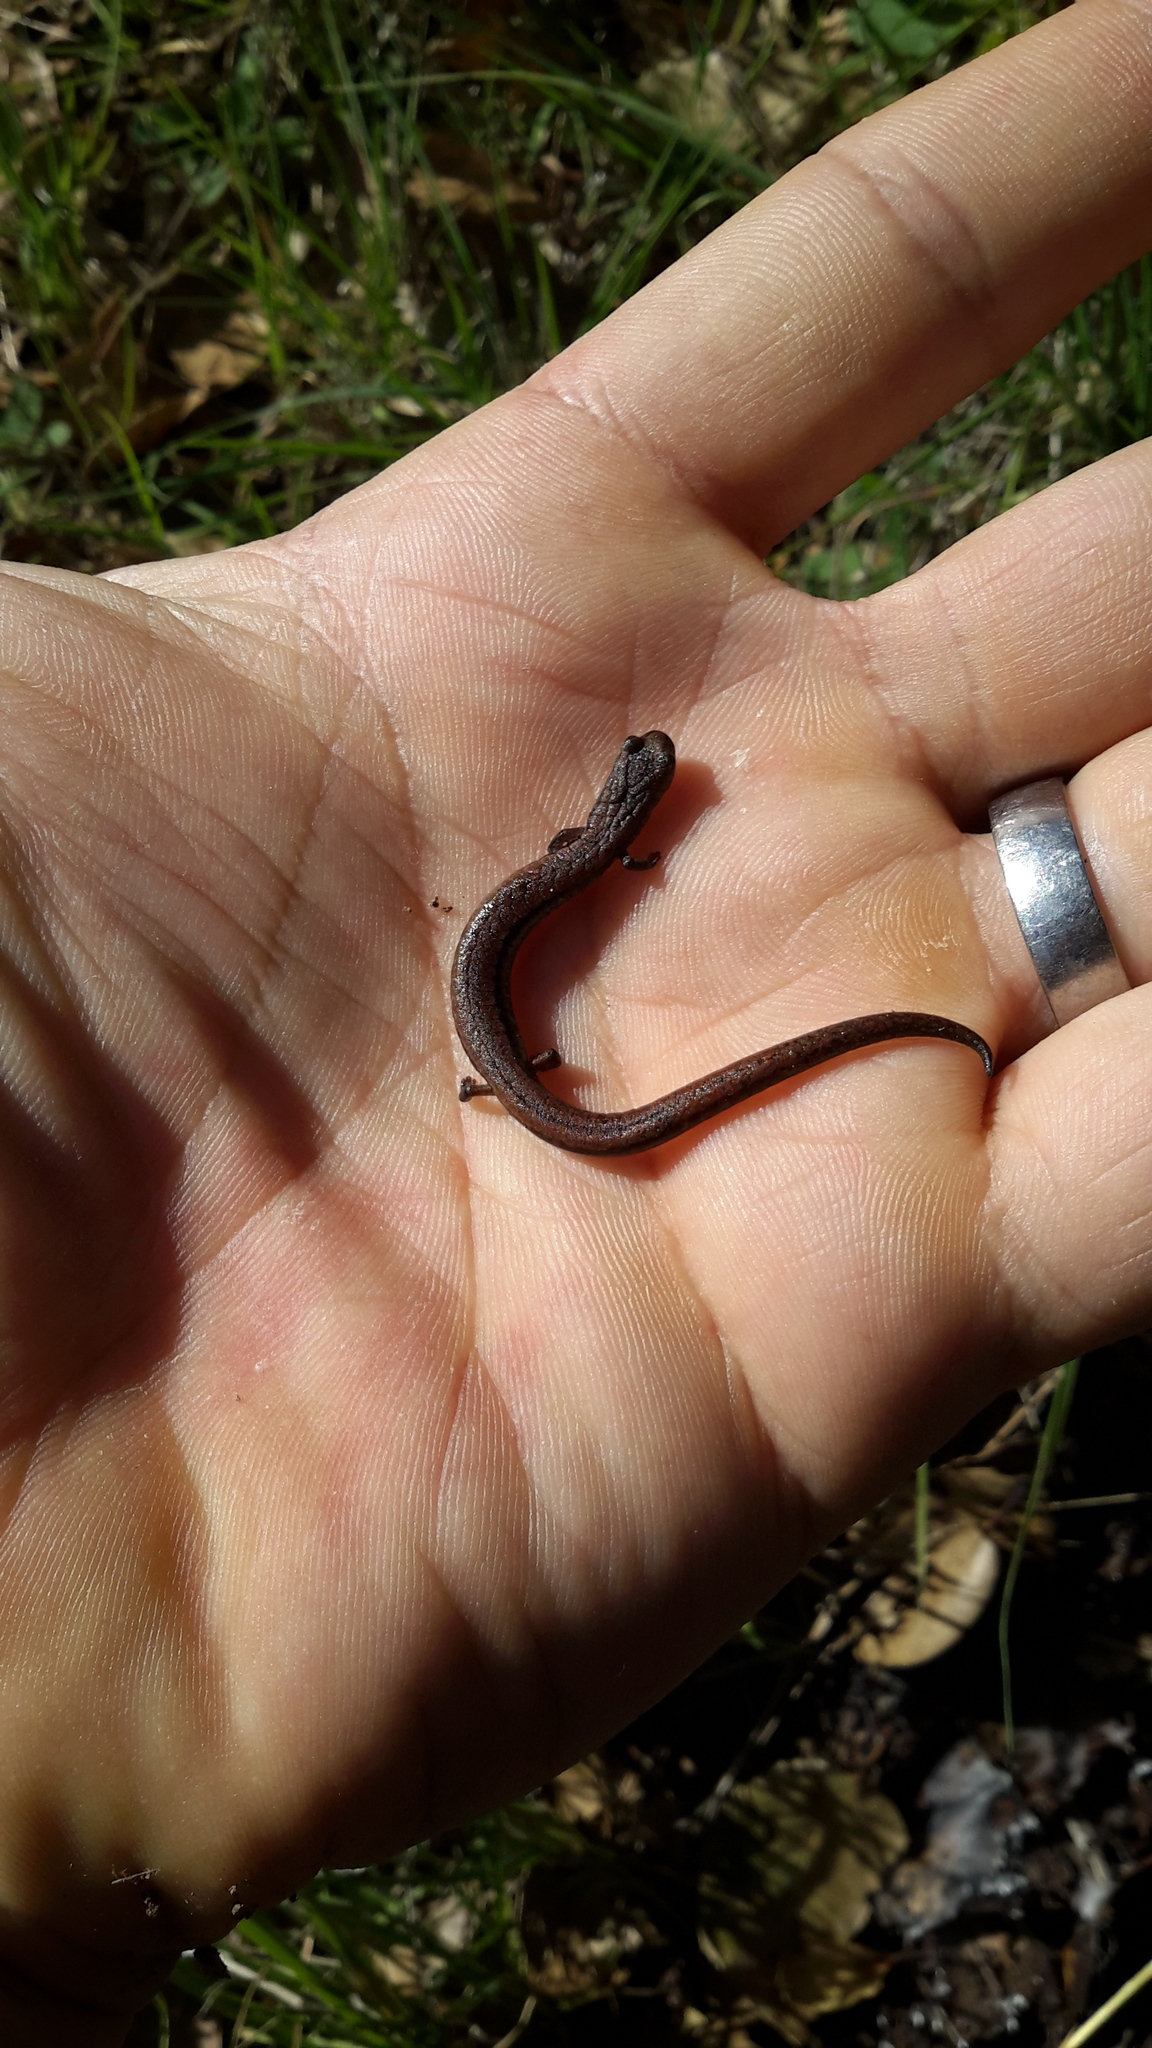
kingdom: Animalia
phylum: Chordata
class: Amphibia
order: Caudata
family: Plethodontidae
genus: Batrachoseps
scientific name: Batrachoseps attenuatus
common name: California slender salamander
